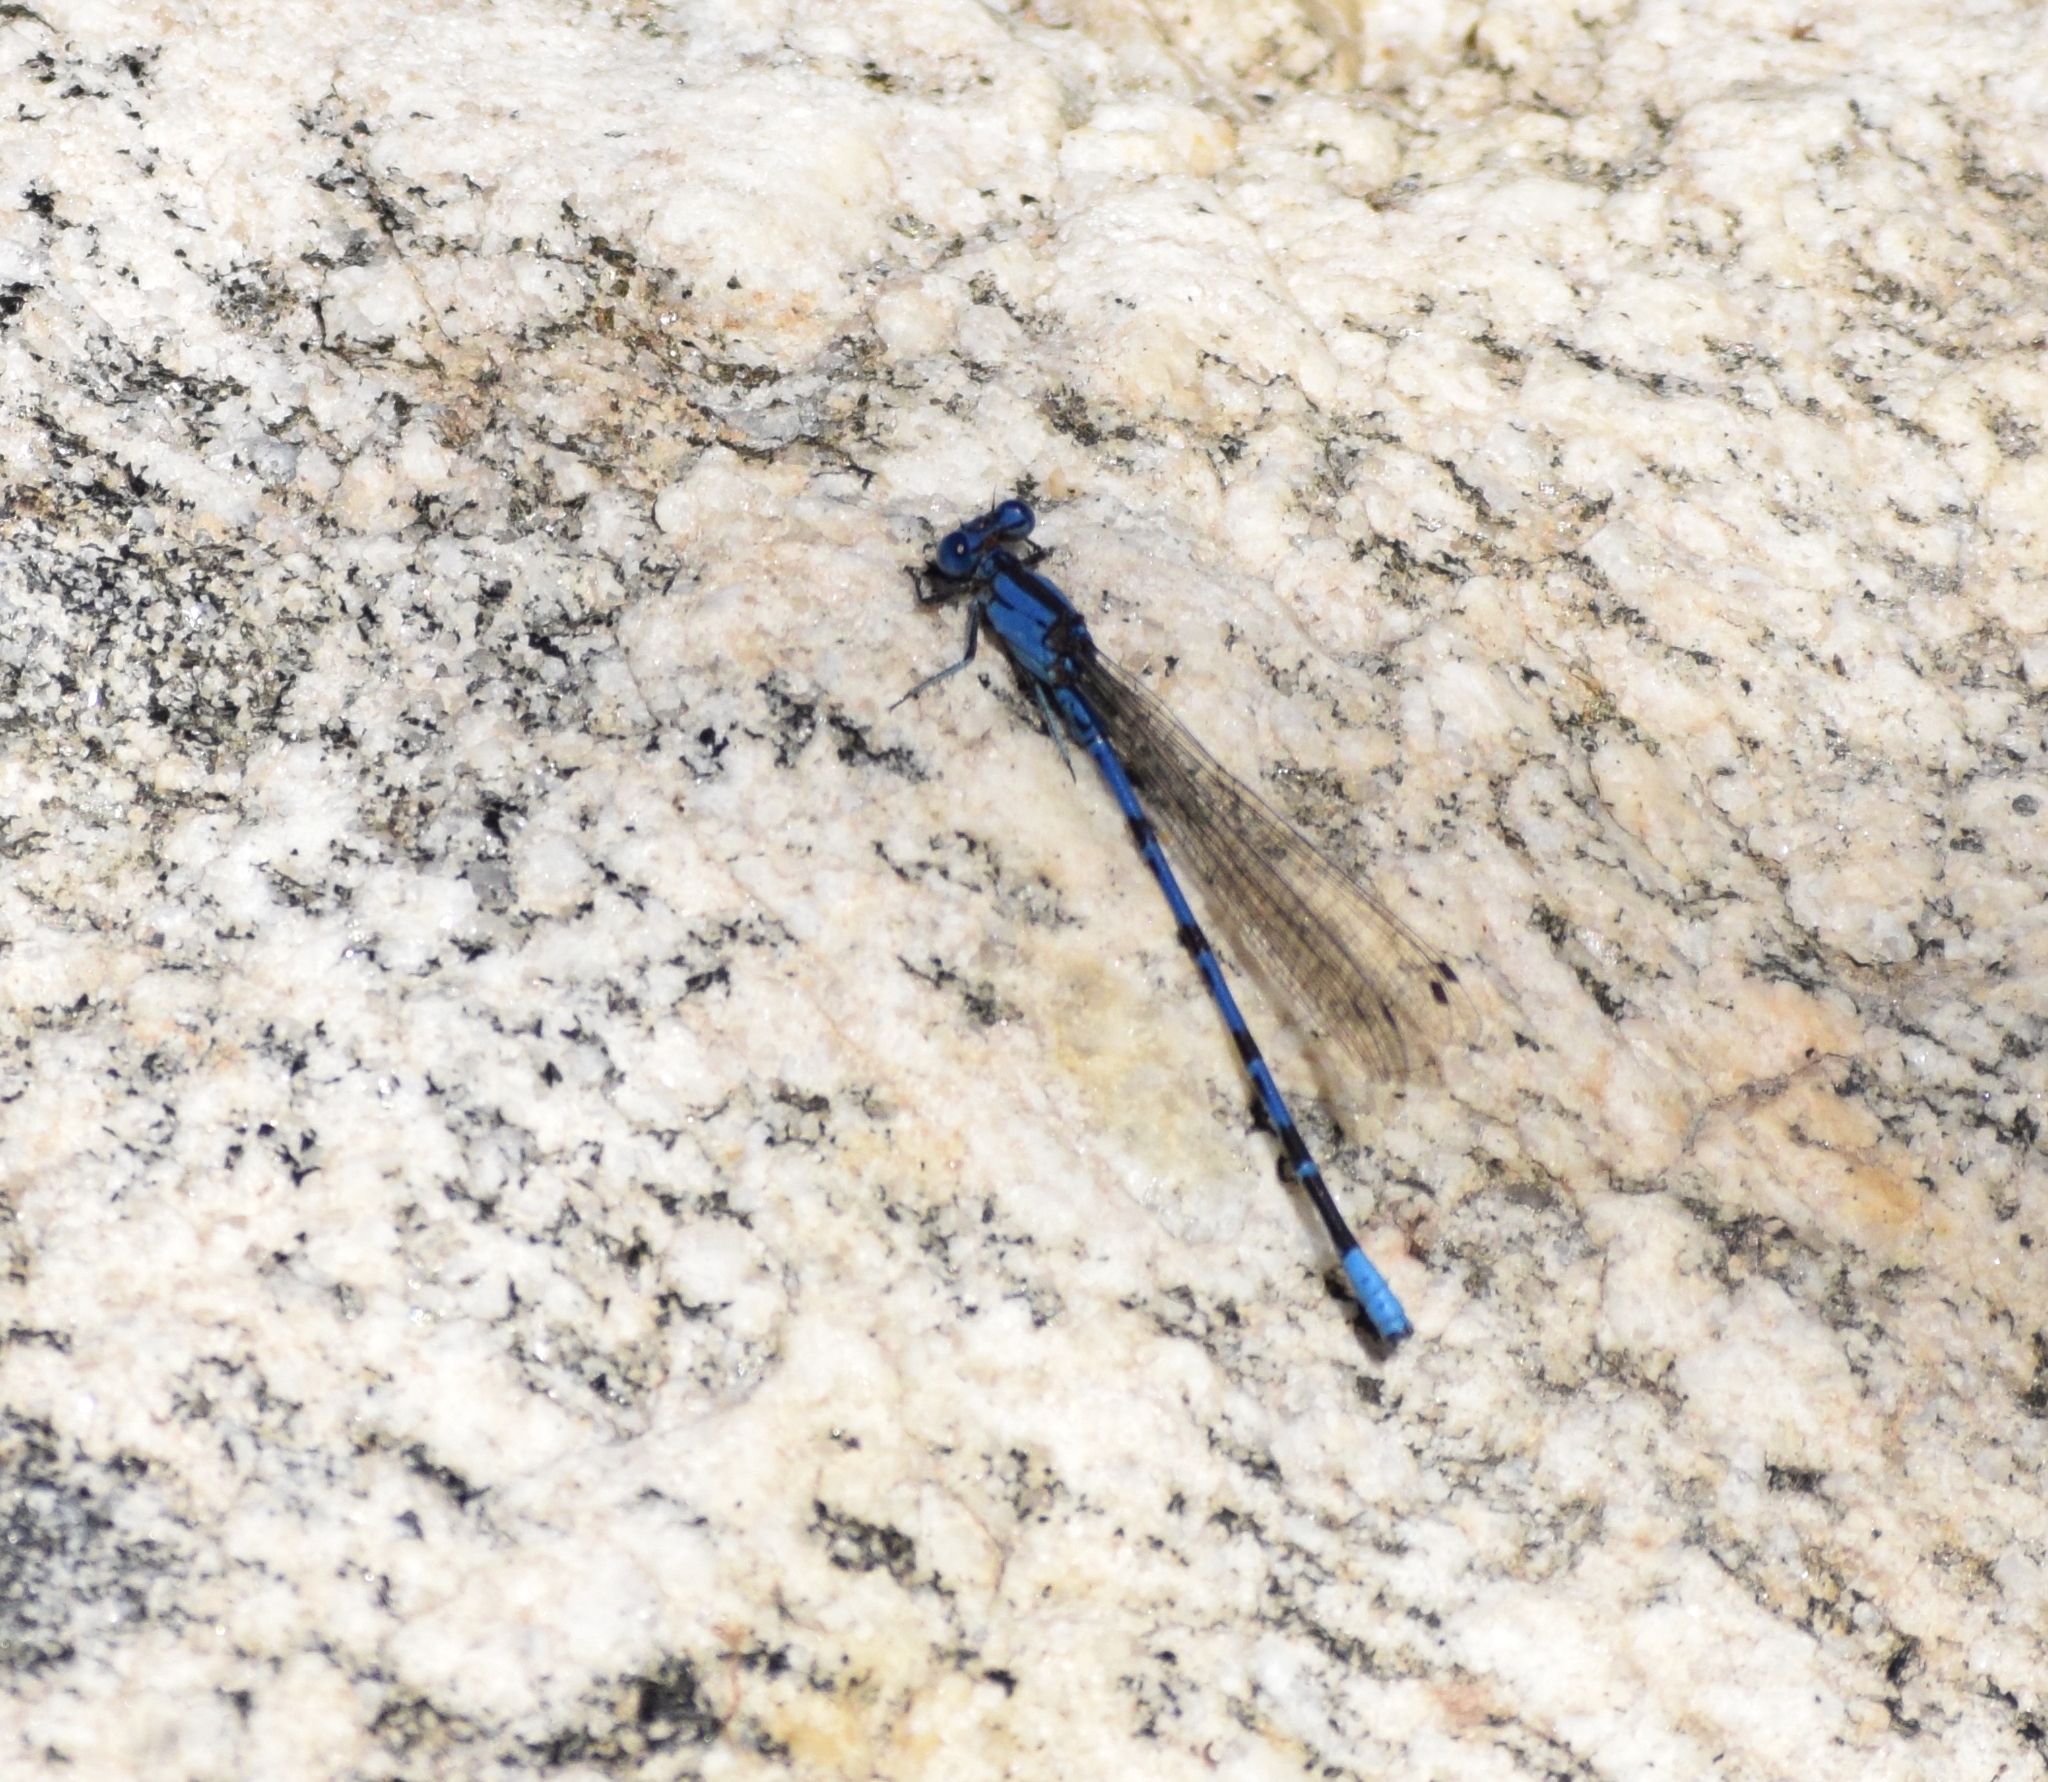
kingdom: Animalia
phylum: Arthropoda
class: Insecta
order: Odonata
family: Coenagrionidae
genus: Argia
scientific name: Argia vivida
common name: Vivid dancer
